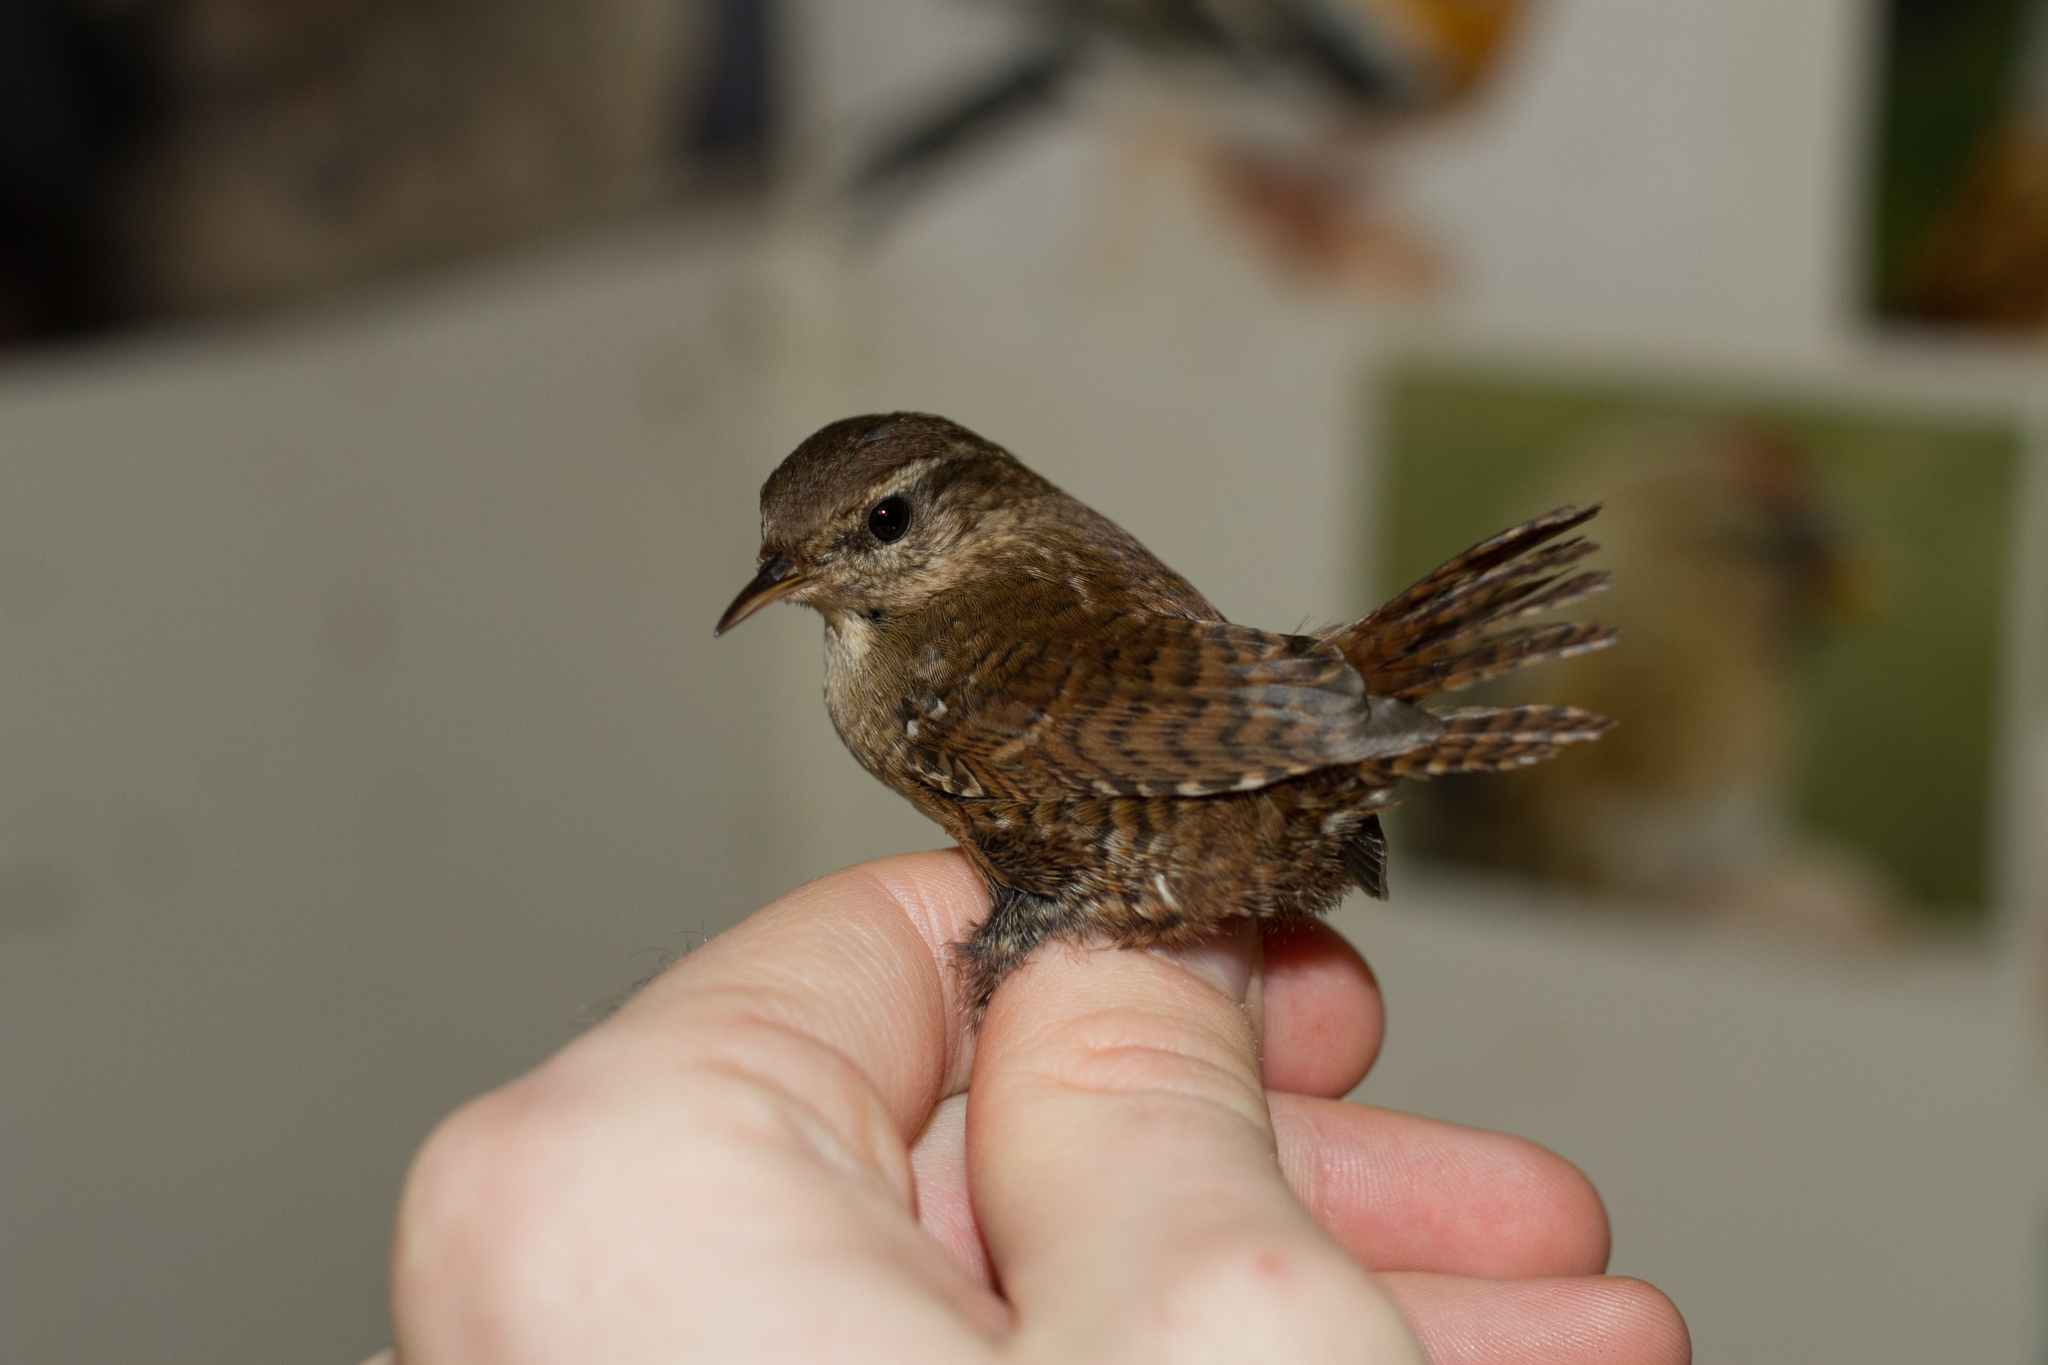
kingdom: Animalia
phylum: Chordata
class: Aves
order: Passeriformes
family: Troglodytidae
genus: Troglodytes
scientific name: Troglodytes troglodytes
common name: Eurasian wren
